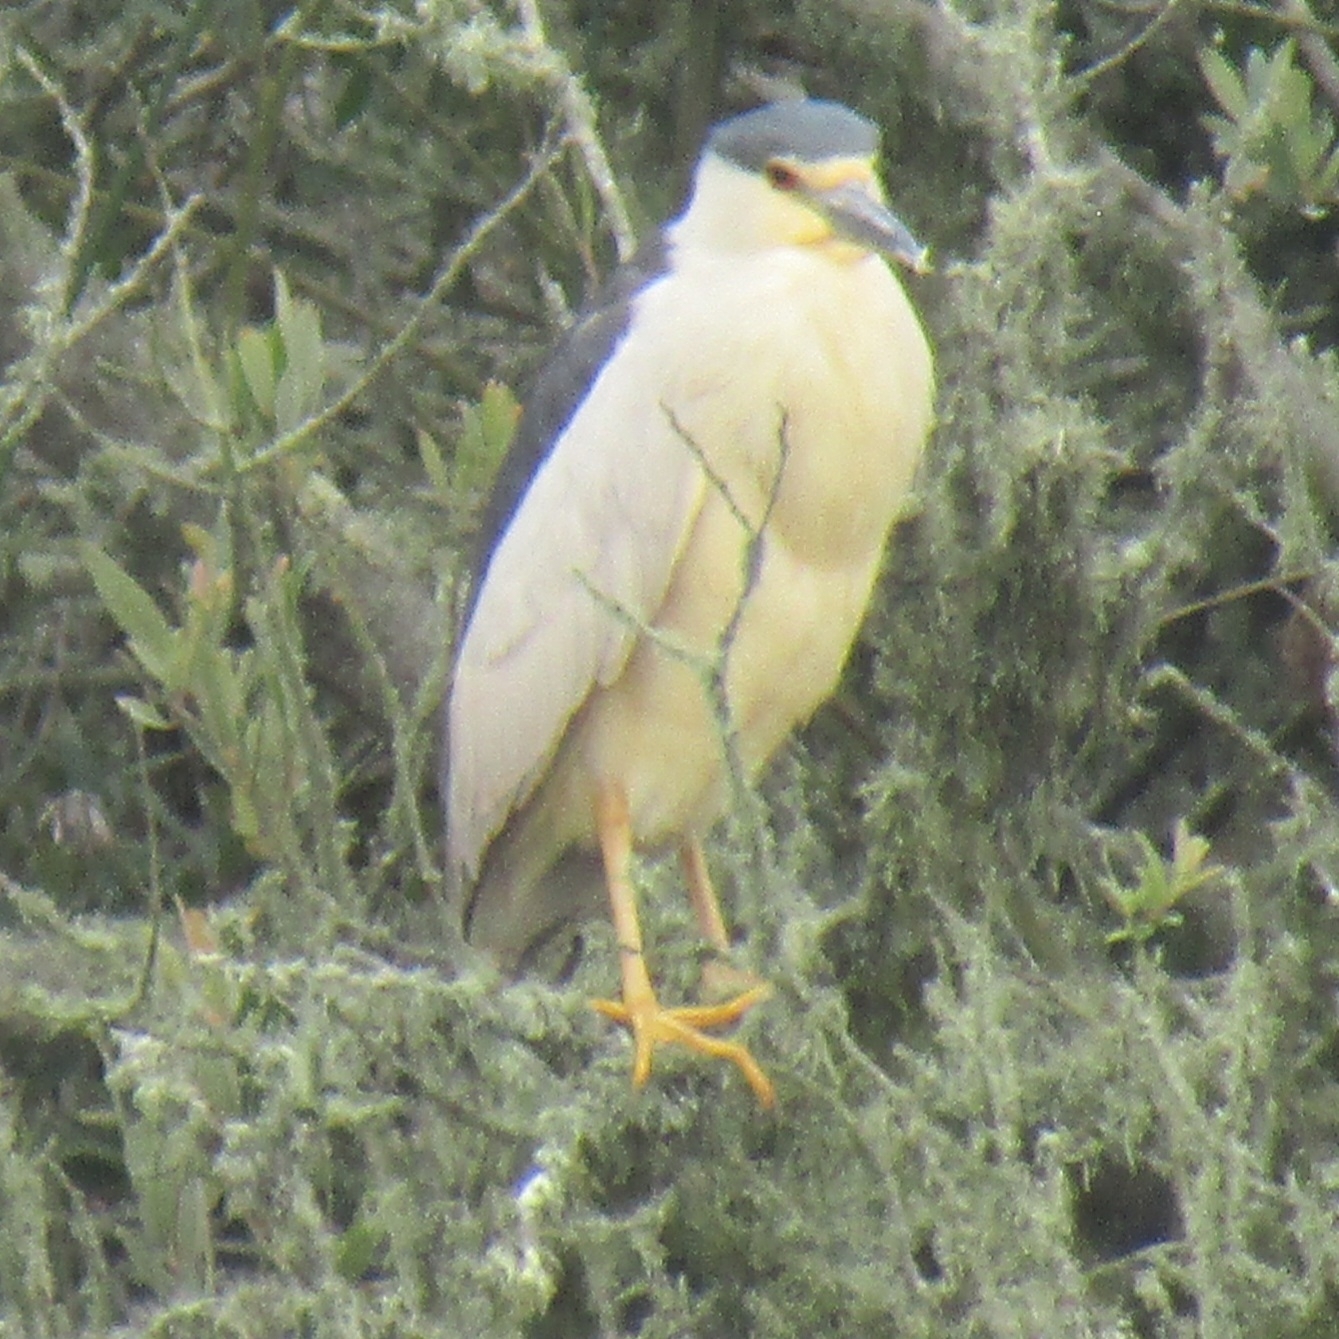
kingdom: Animalia
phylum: Chordata
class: Aves
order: Pelecaniformes
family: Ardeidae
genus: Nycticorax
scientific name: Nycticorax nycticorax
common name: Black-crowned night heron
